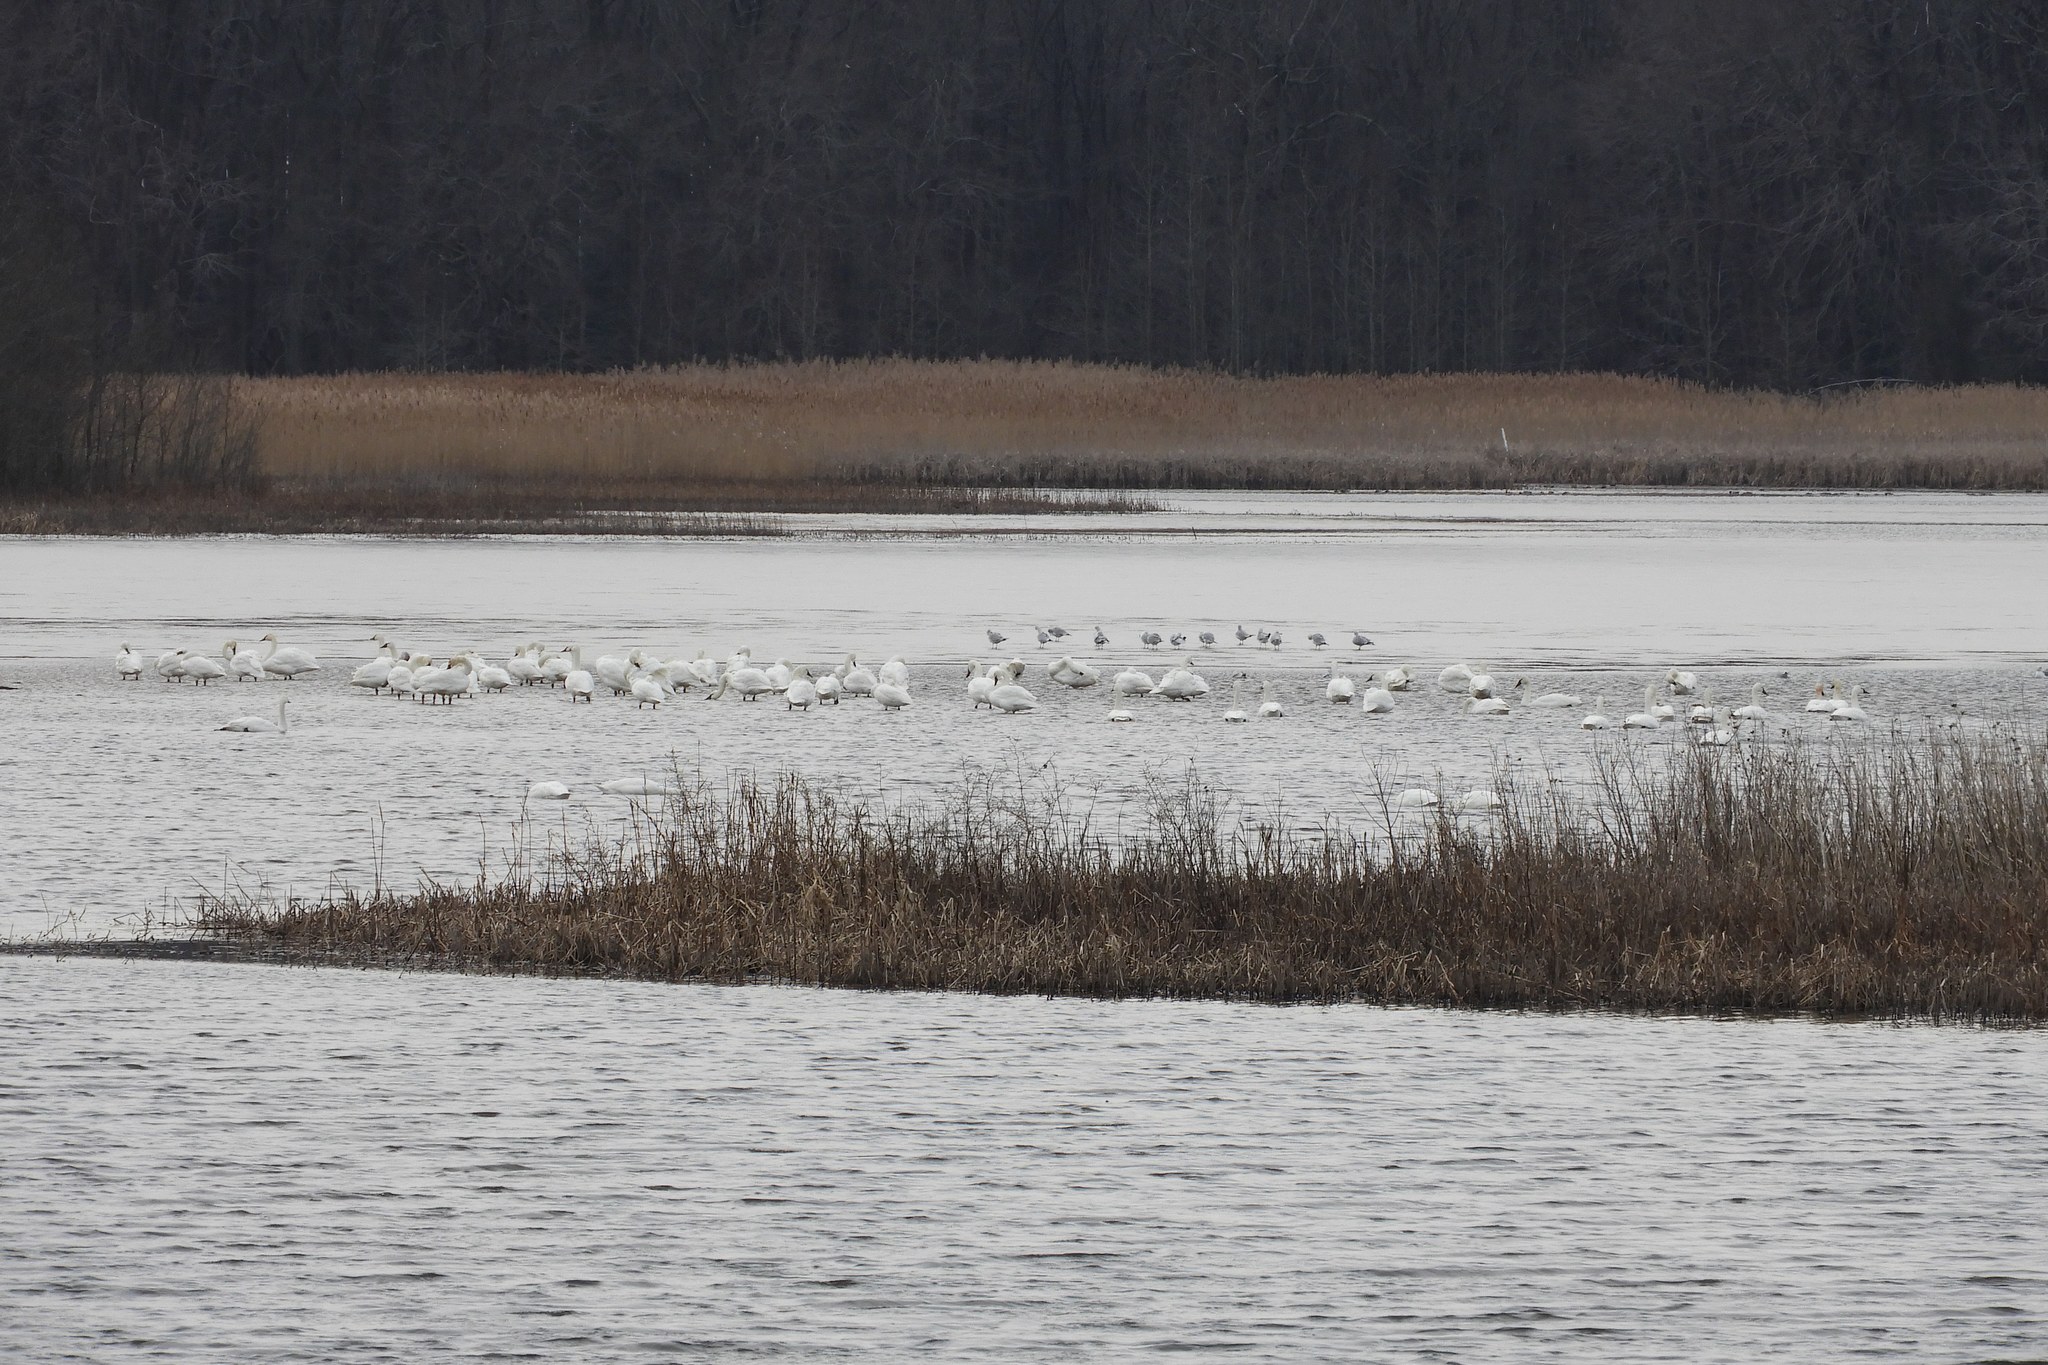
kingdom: Animalia
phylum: Chordata
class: Aves
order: Anseriformes
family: Anatidae
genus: Cygnus
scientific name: Cygnus columbianus
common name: Tundra swan
